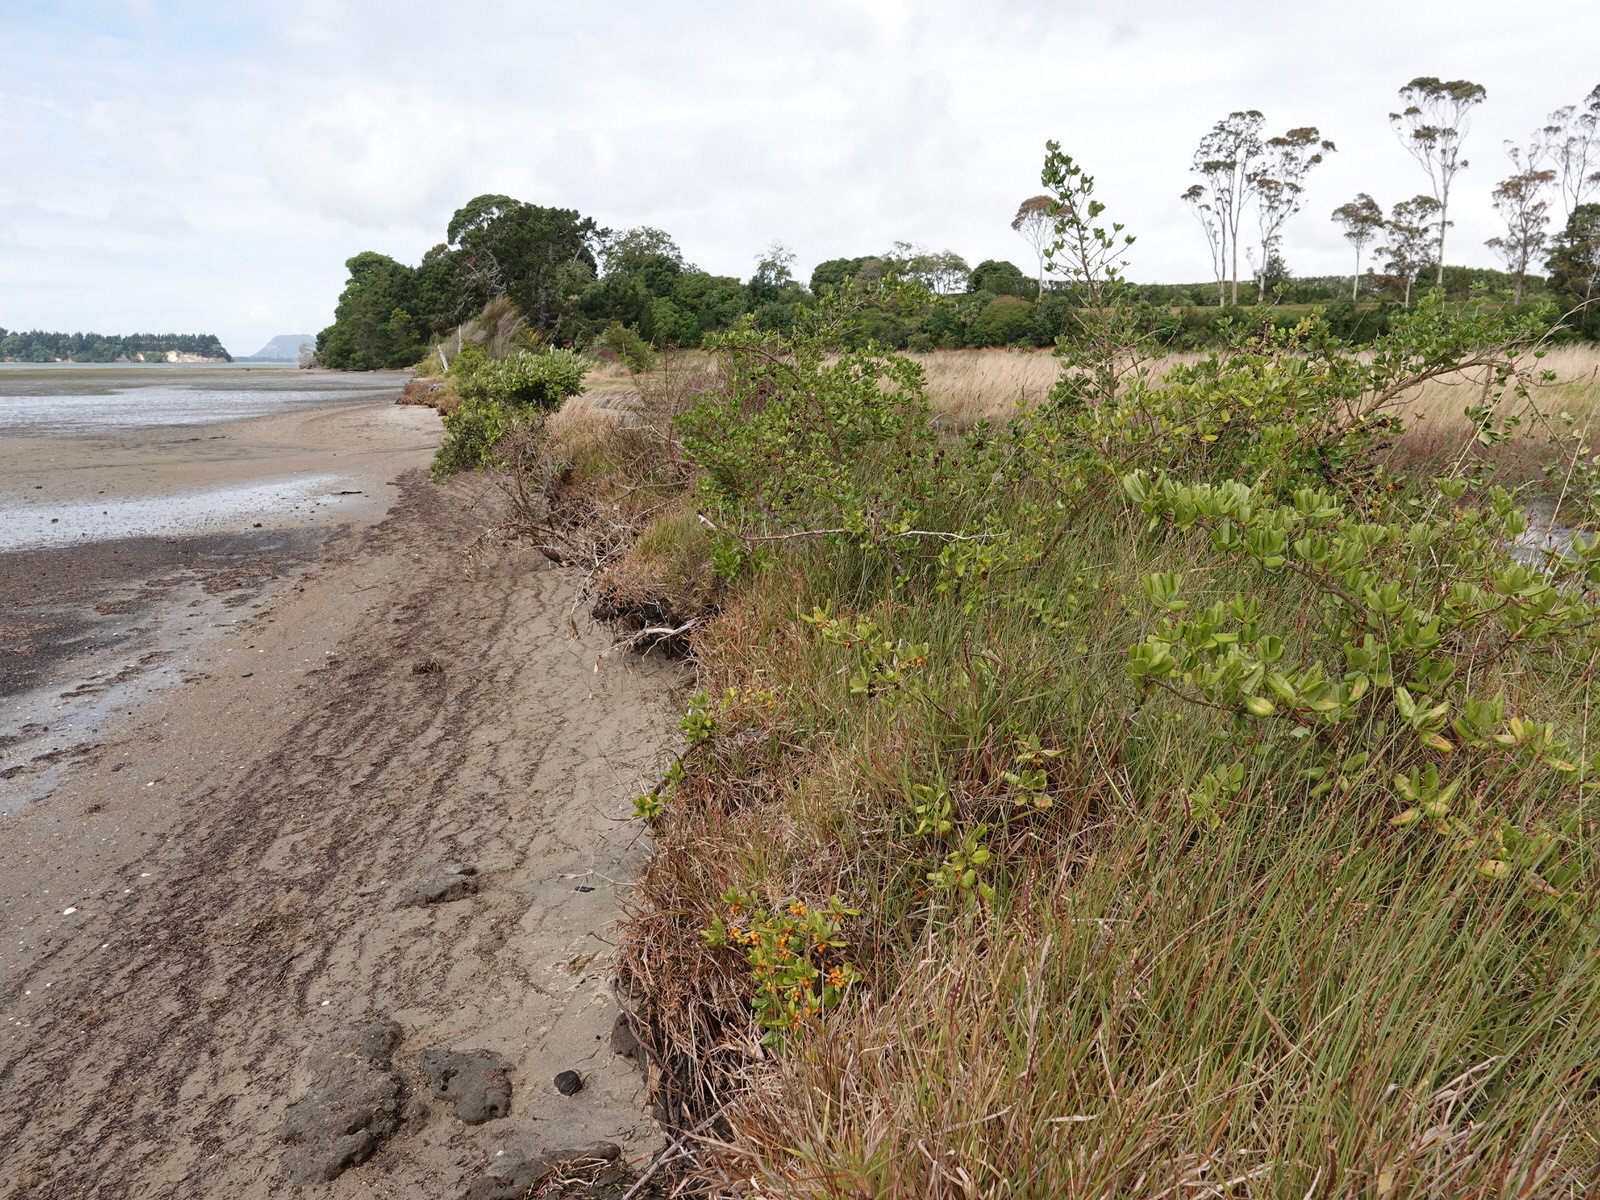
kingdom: Plantae
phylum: Tracheophyta
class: Magnoliopsida
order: Gentianales
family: Rubiaceae
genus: Coprosma
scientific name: Coprosma repens
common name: Tree bedstraw
